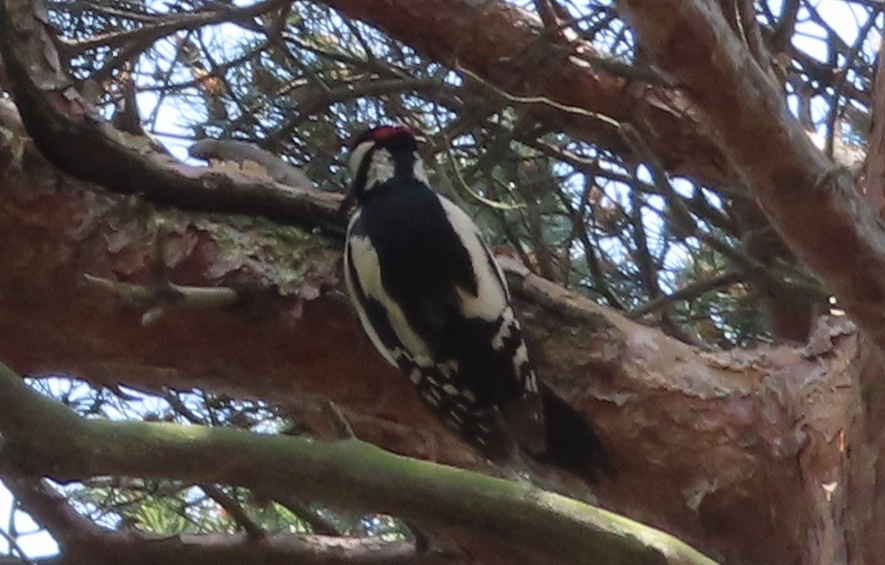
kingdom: Animalia
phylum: Chordata
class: Aves
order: Piciformes
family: Picidae
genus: Dendrocopos
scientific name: Dendrocopos major
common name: Great spotted woodpecker
